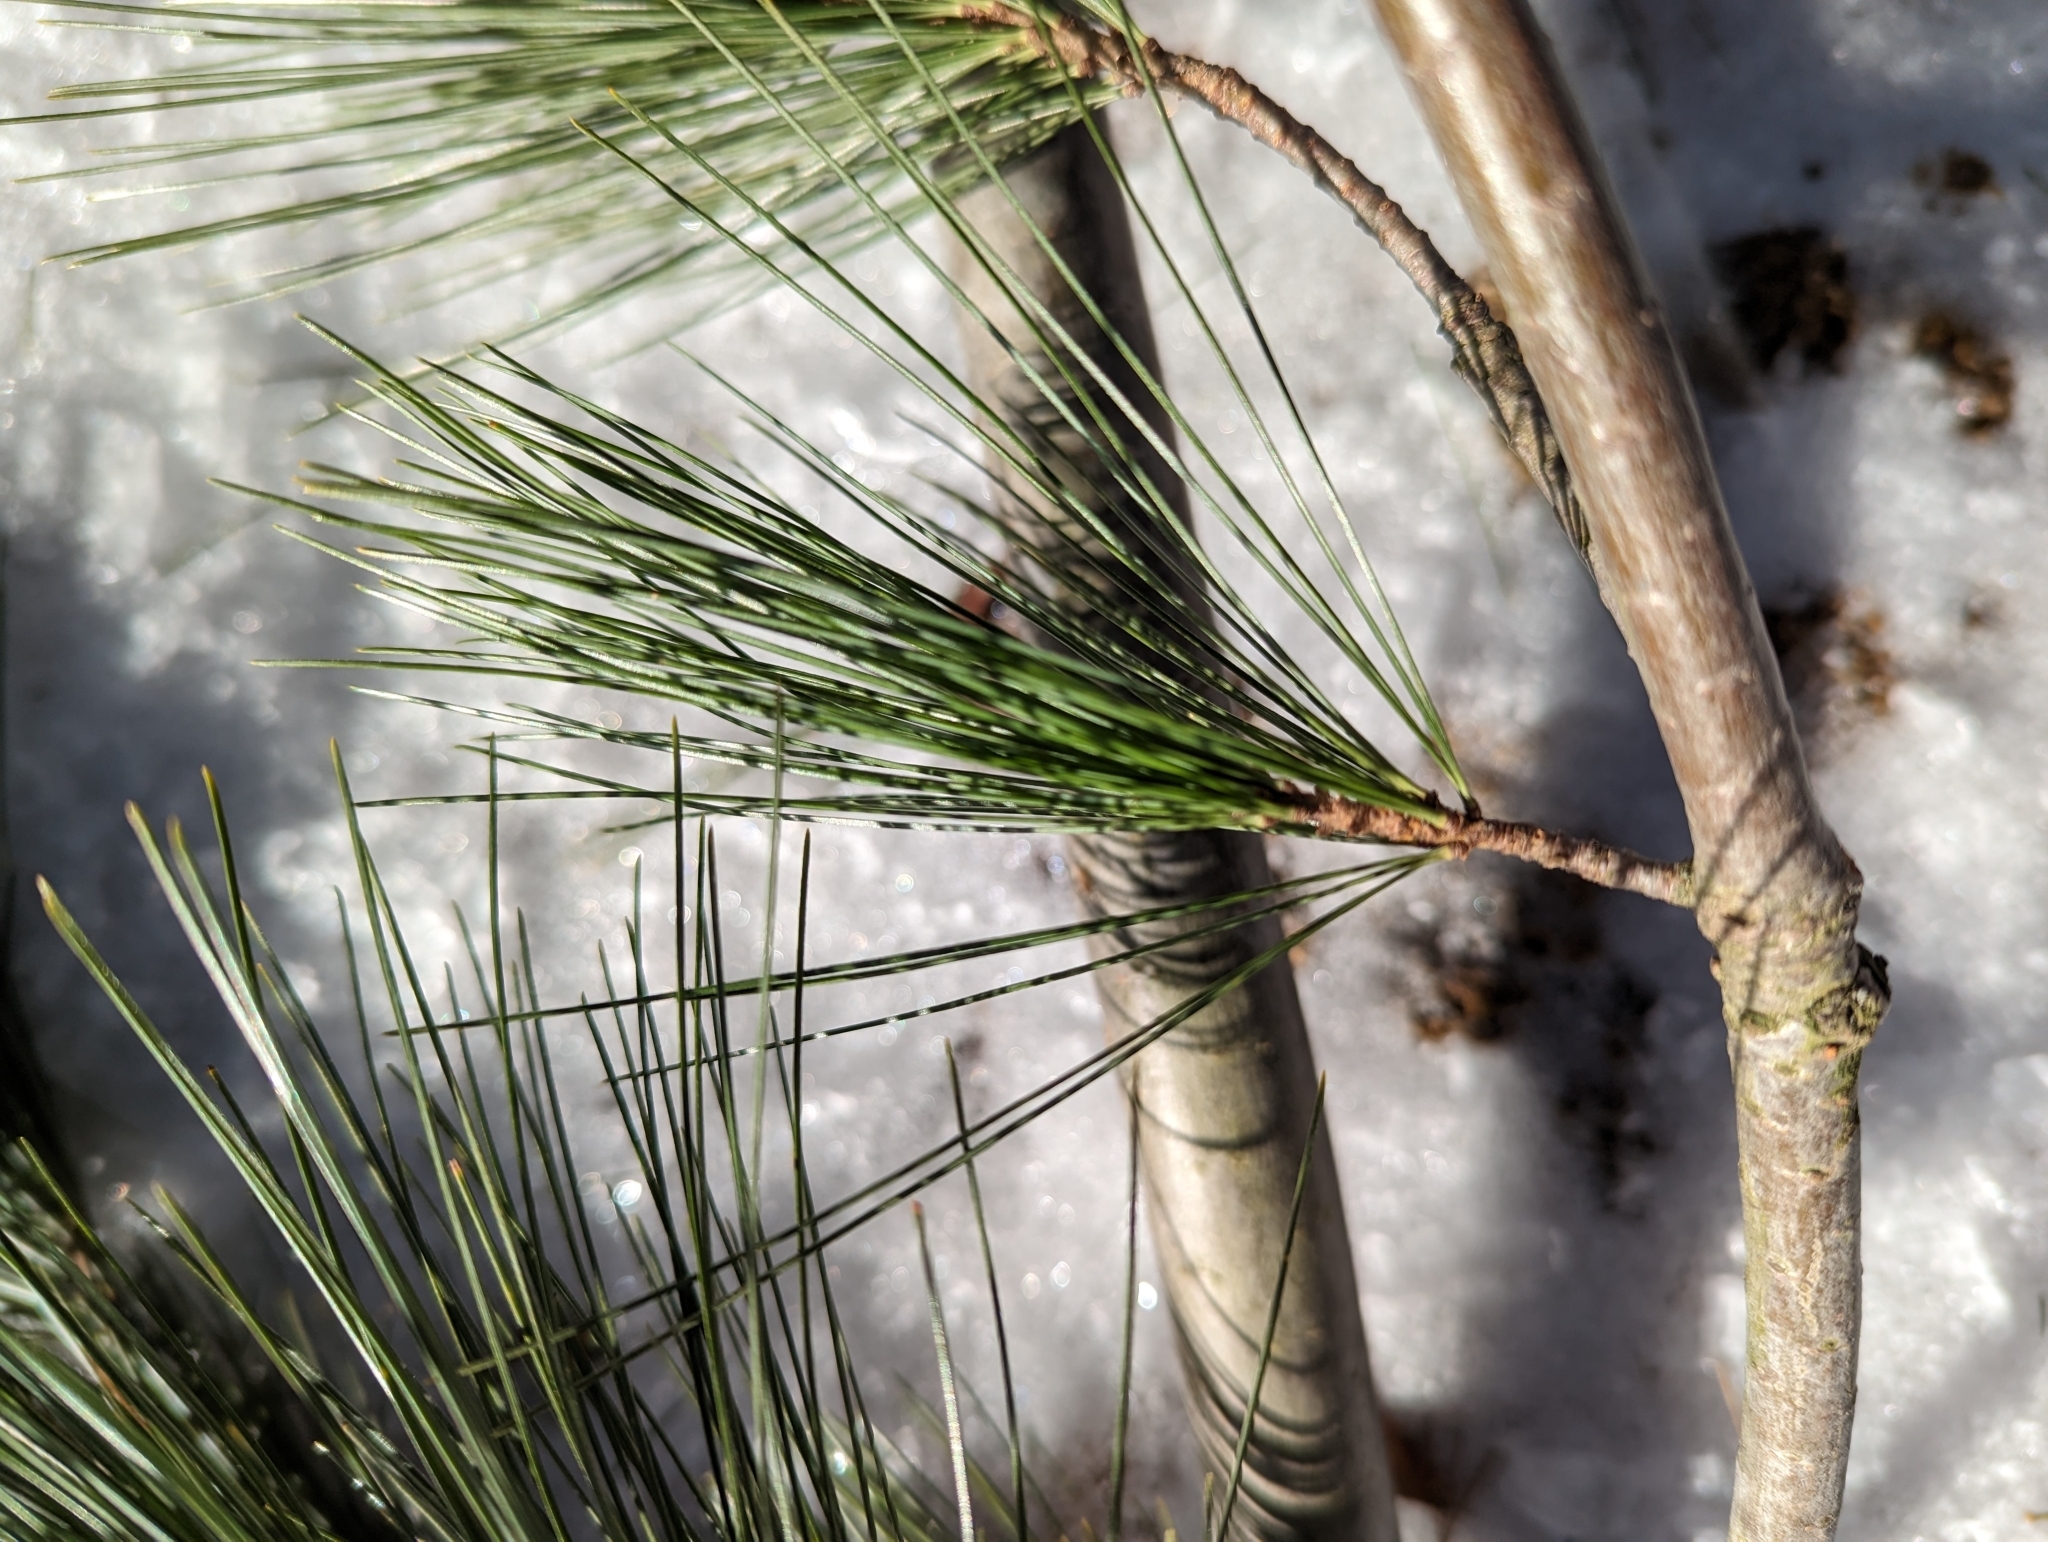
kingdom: Plantae
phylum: Tracheophyta
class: Pinopsida
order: Pinales
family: Pinaceae
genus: Pinus
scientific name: Pinus strobus
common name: Weymouth pine
